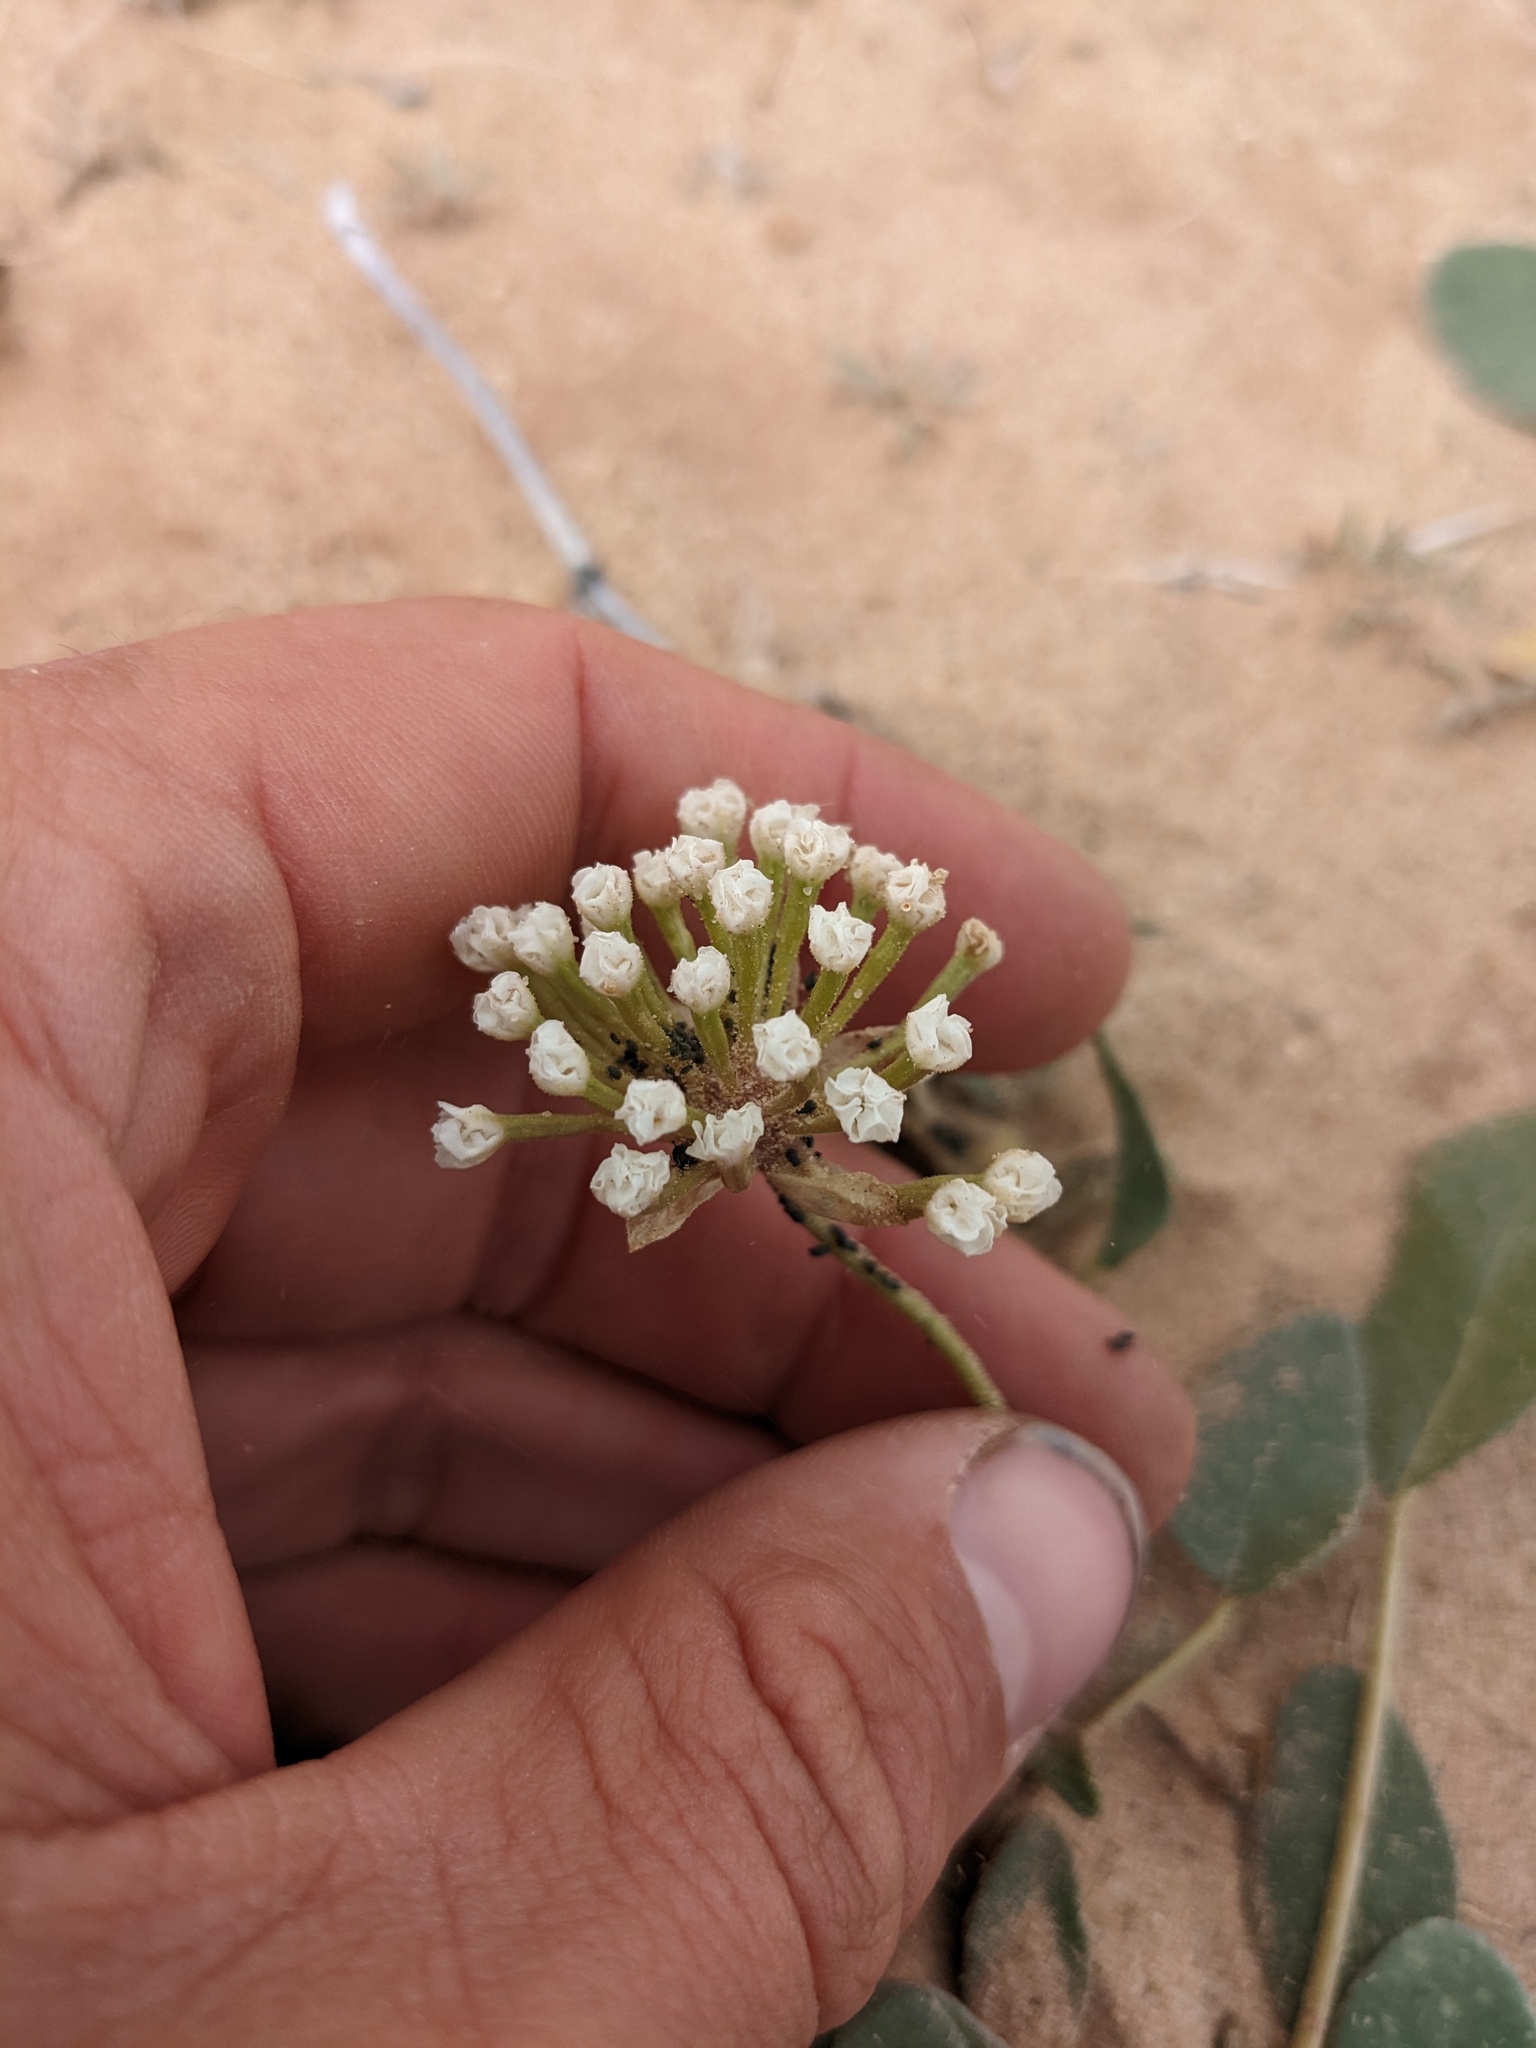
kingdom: Plantae
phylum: Tracheophyta
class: Magnoliopsida
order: Caryophyllales
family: Nyctaginaceae
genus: Abronia
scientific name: Abronia elliptica
